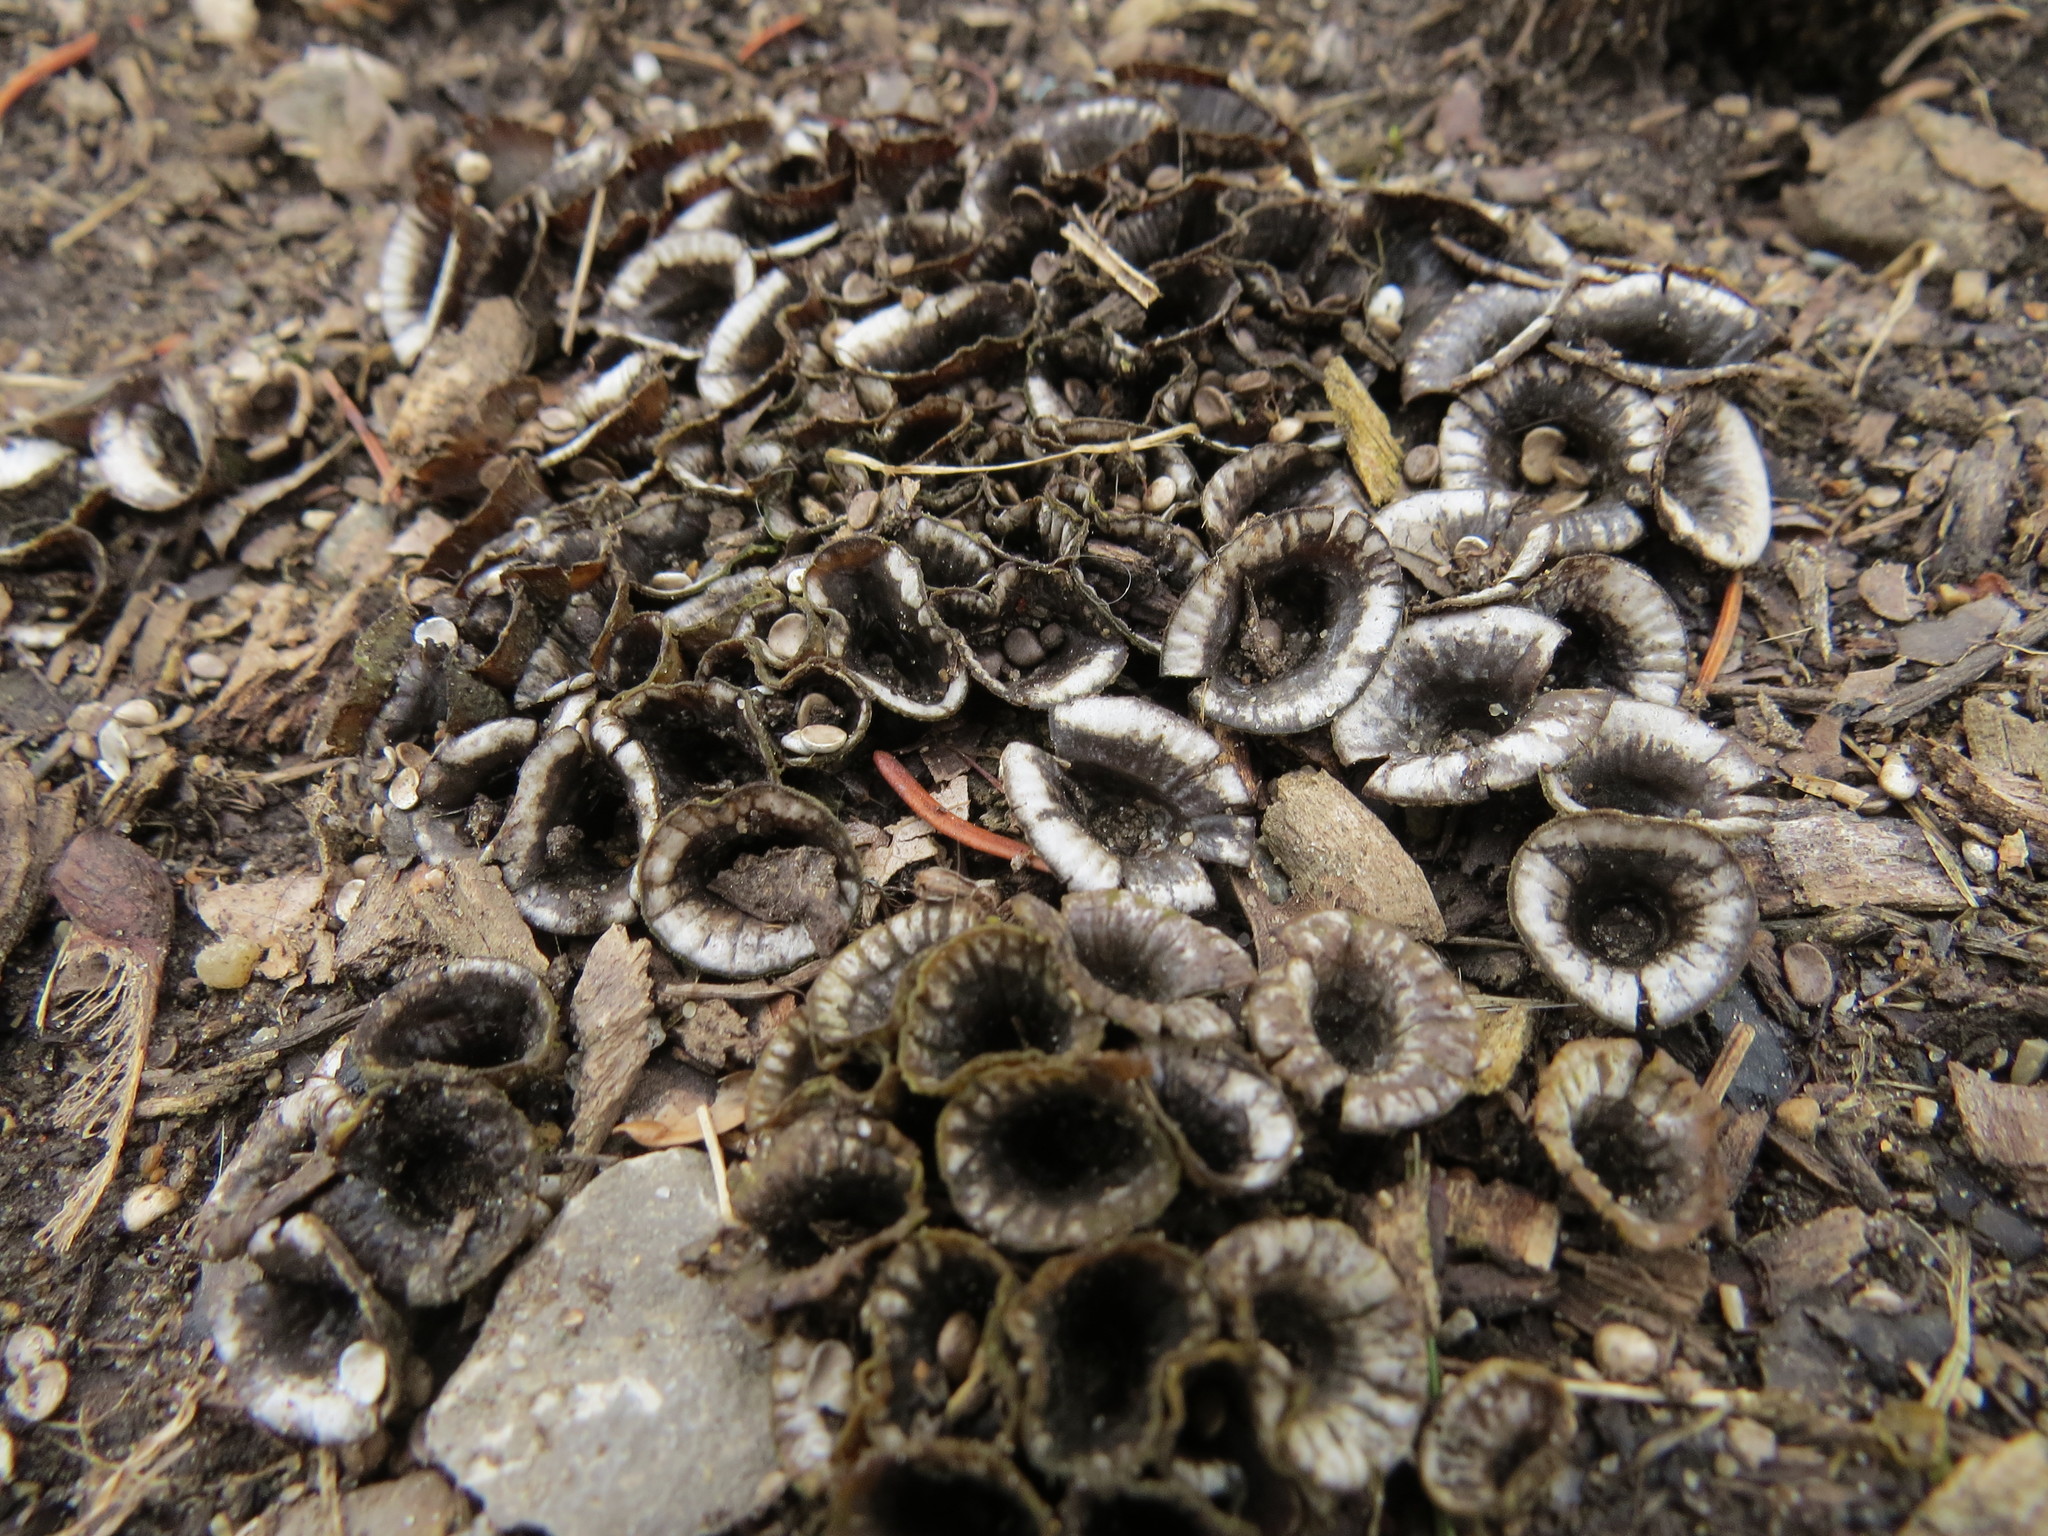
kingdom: Fungi
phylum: Basidiomycota
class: Agaricomycetes
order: Agaricales
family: Agaricaceae
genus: Cyathus
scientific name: Cyathus striatus
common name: Fluted bird's nest
